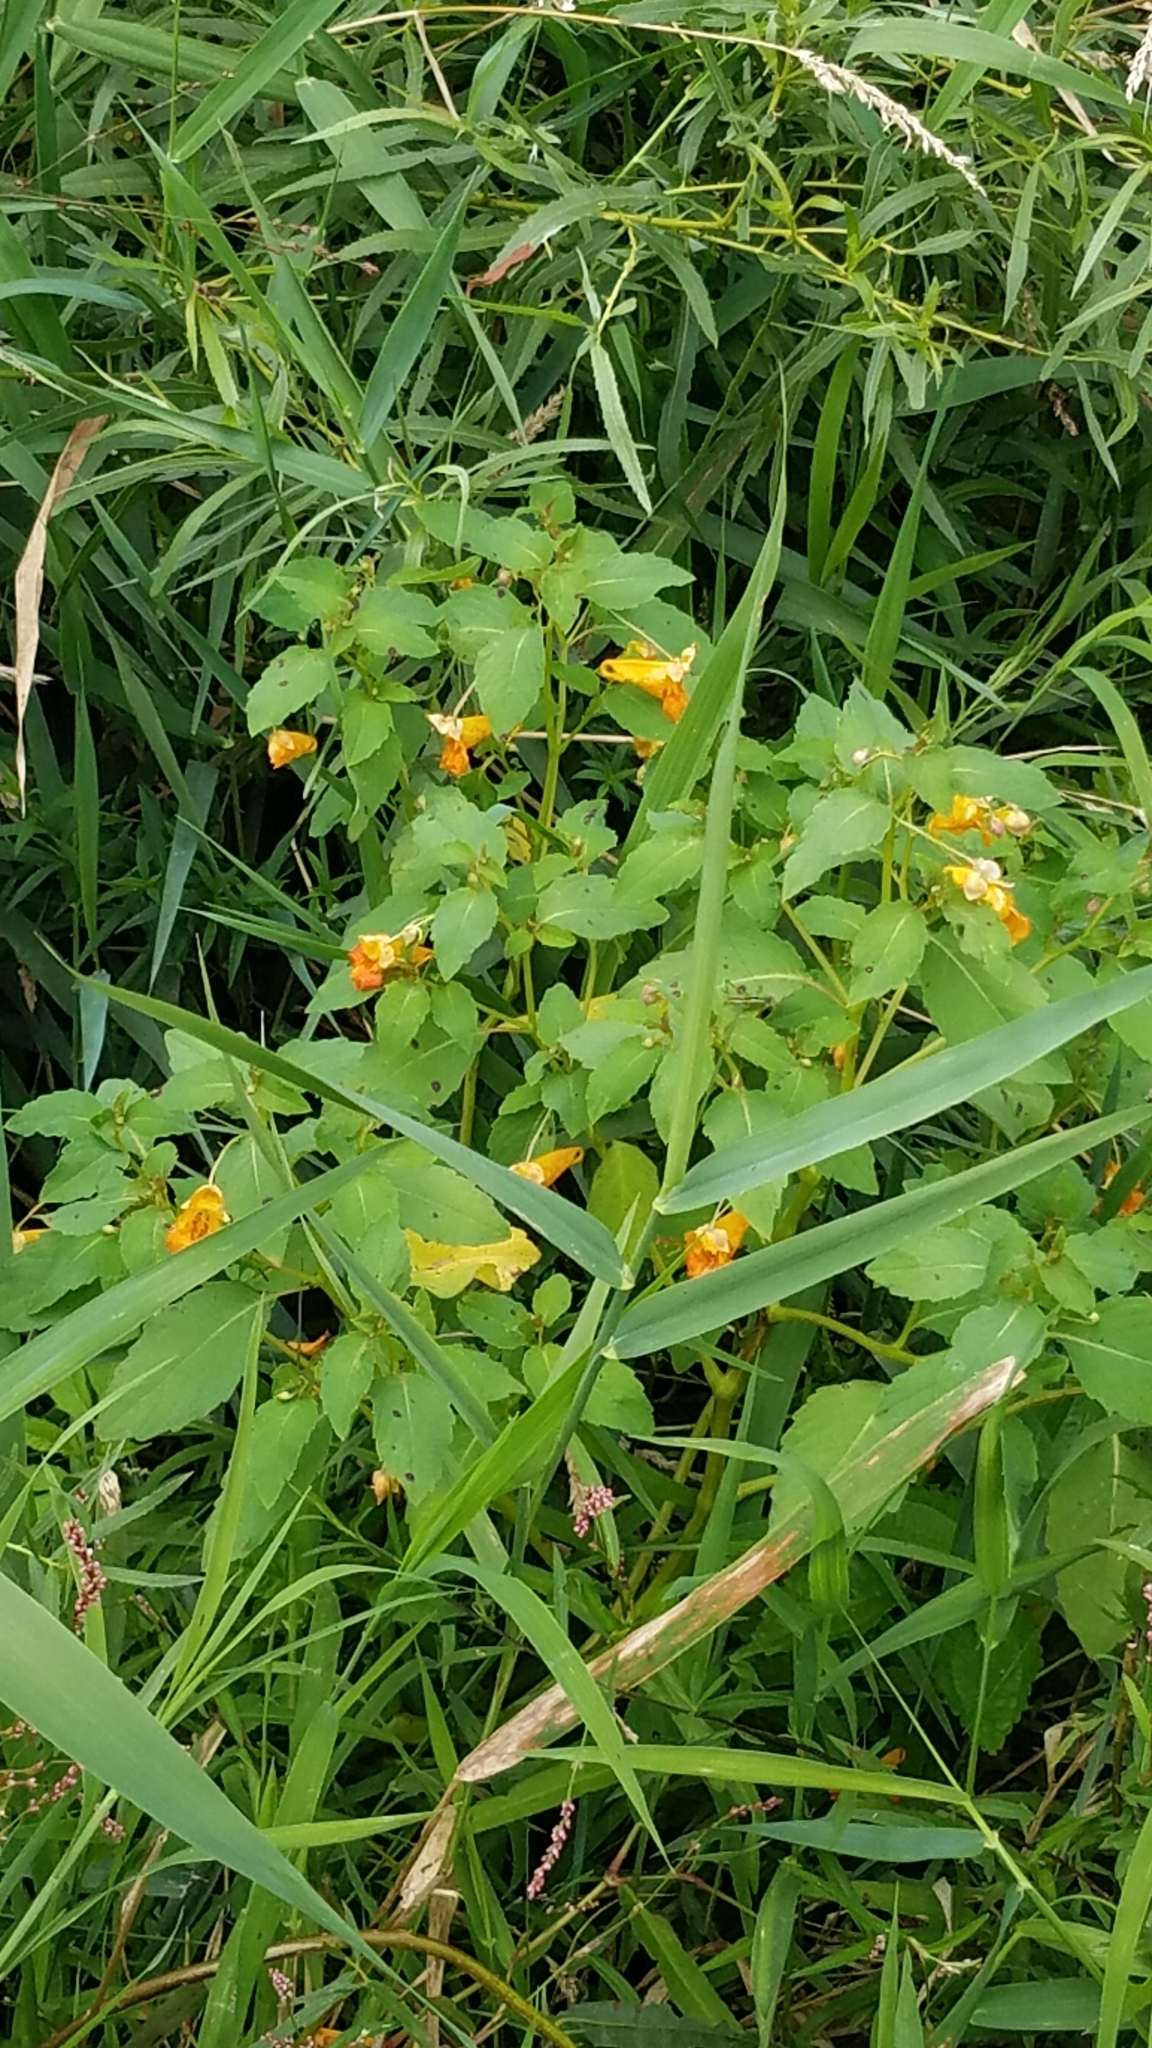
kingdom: Plantae
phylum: Tracheophyta
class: Magnoliopsida
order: Ericales
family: Balsaminaceae
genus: Impatiens
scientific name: Impatiens capensis
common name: Orange balsam
